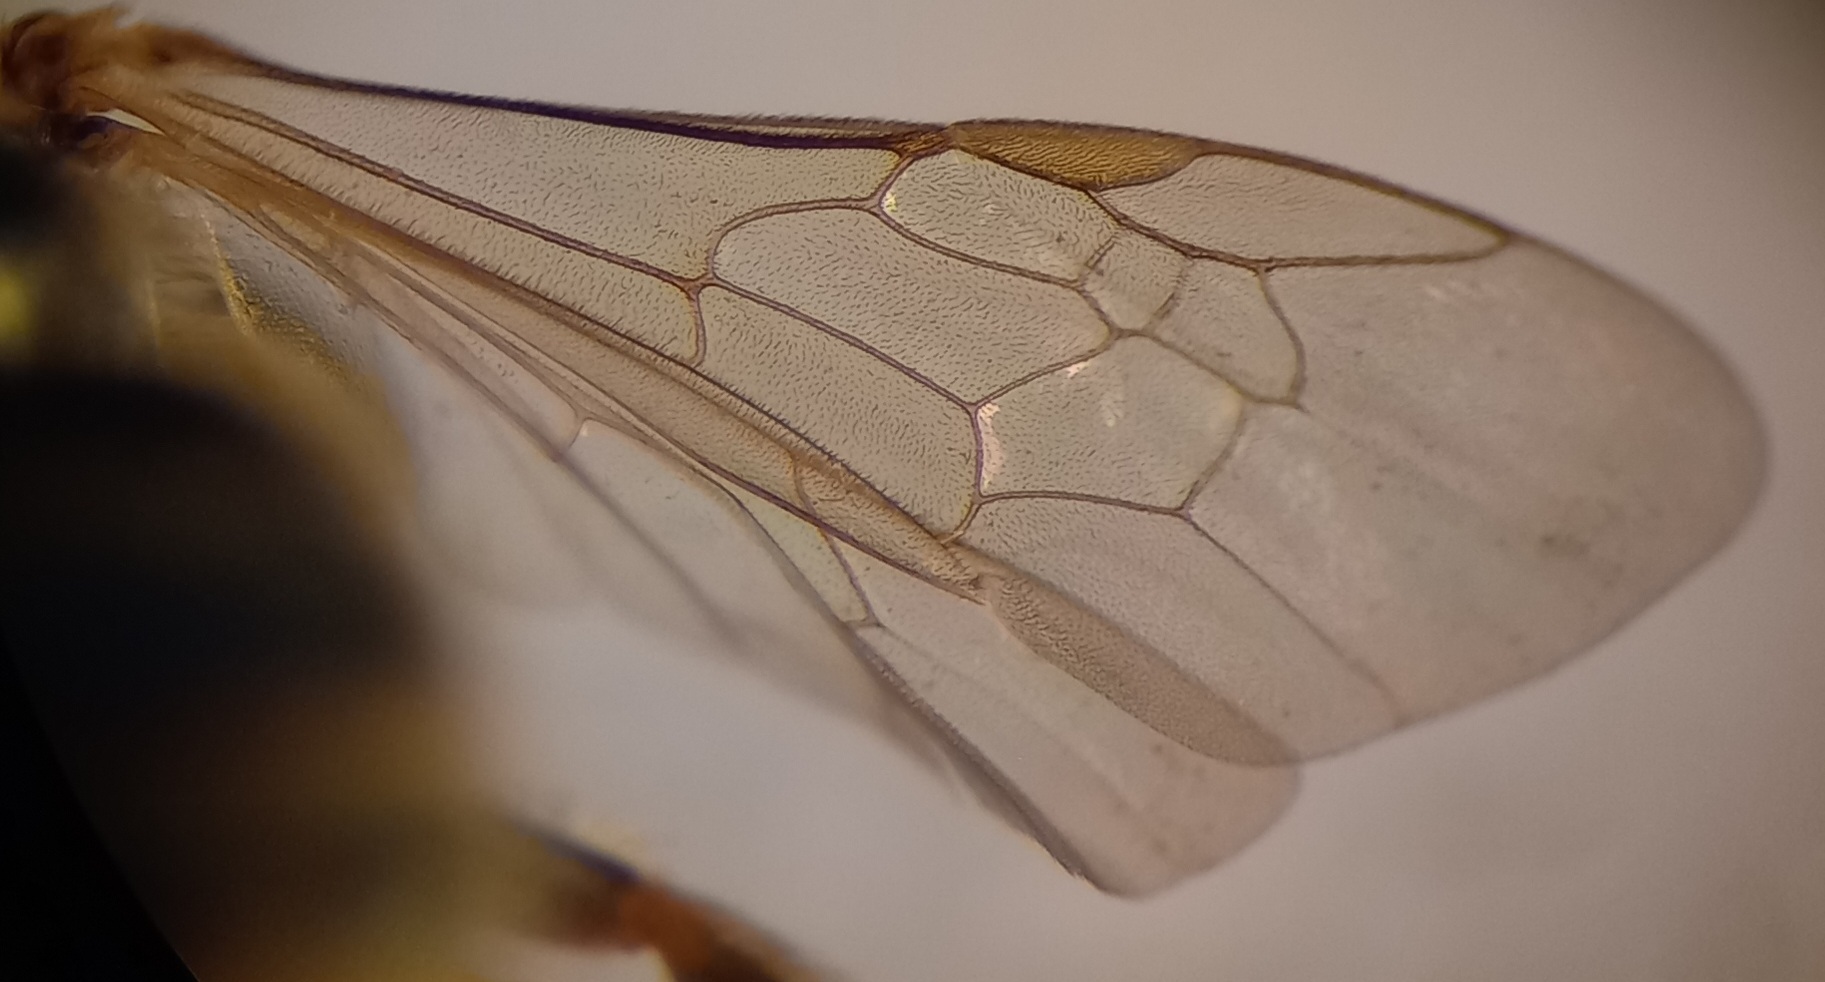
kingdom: Animalia
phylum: Arthropoda
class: Insecta
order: Hymenoptera
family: Halictidae
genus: Halictus
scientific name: Halictus
